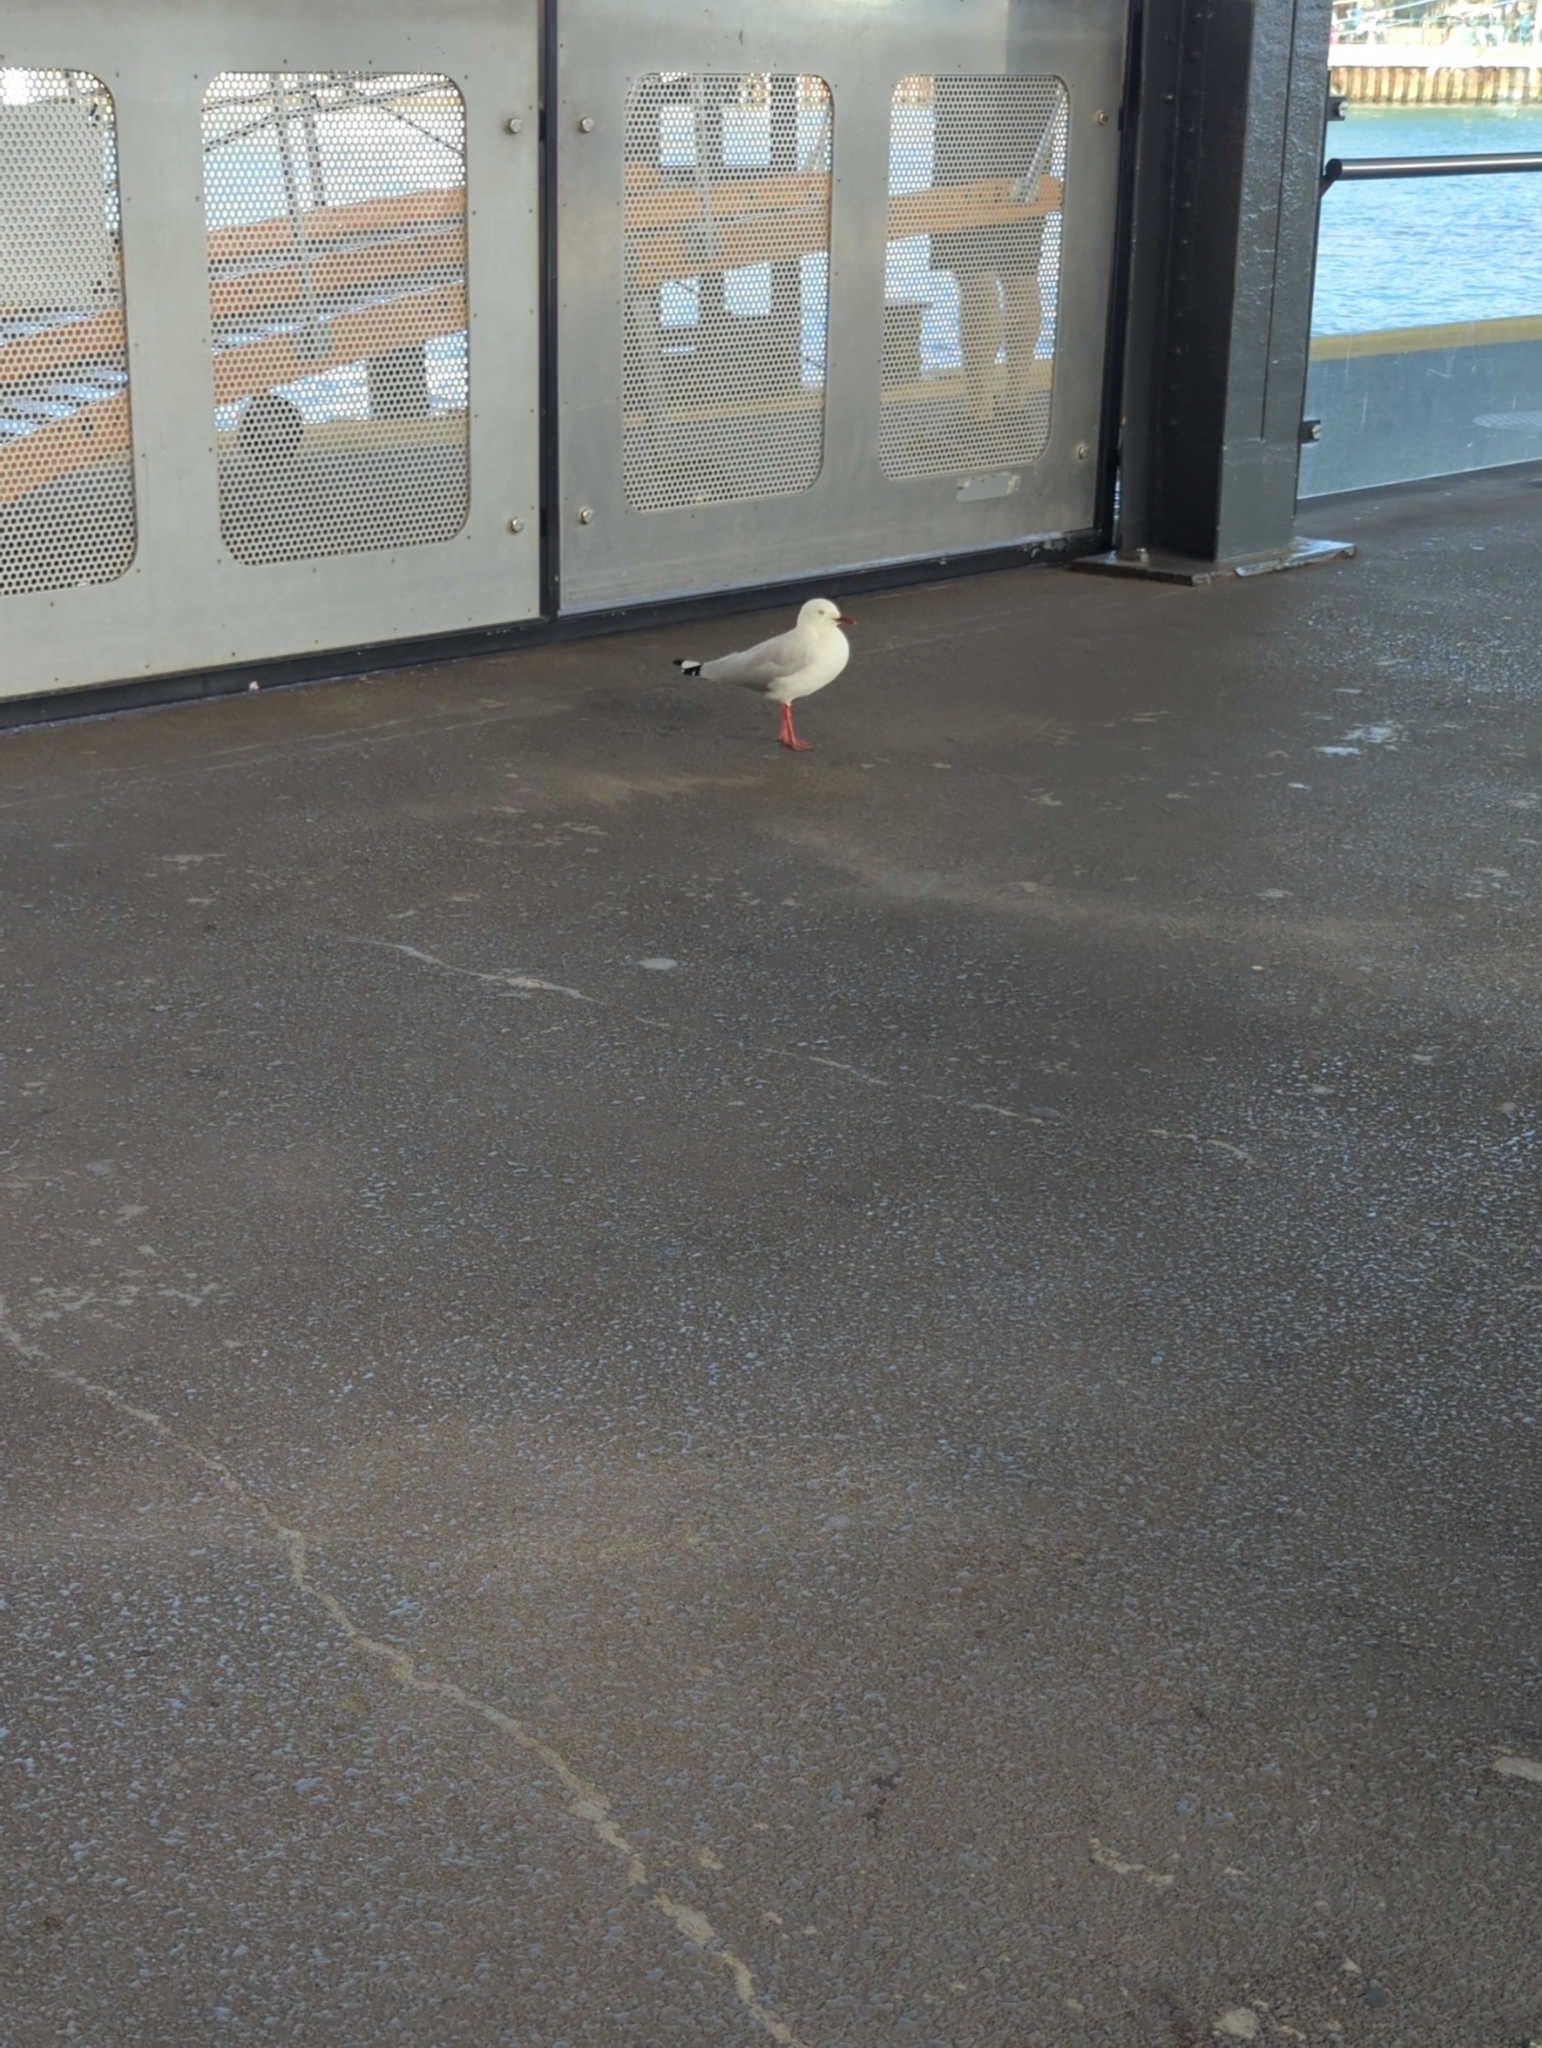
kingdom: Animalia
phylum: Chordata
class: Aves
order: Charadriiformes
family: Laridae
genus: Chroicocephalus
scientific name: Chroicocephalus novaehollandiae
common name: Silver gull
